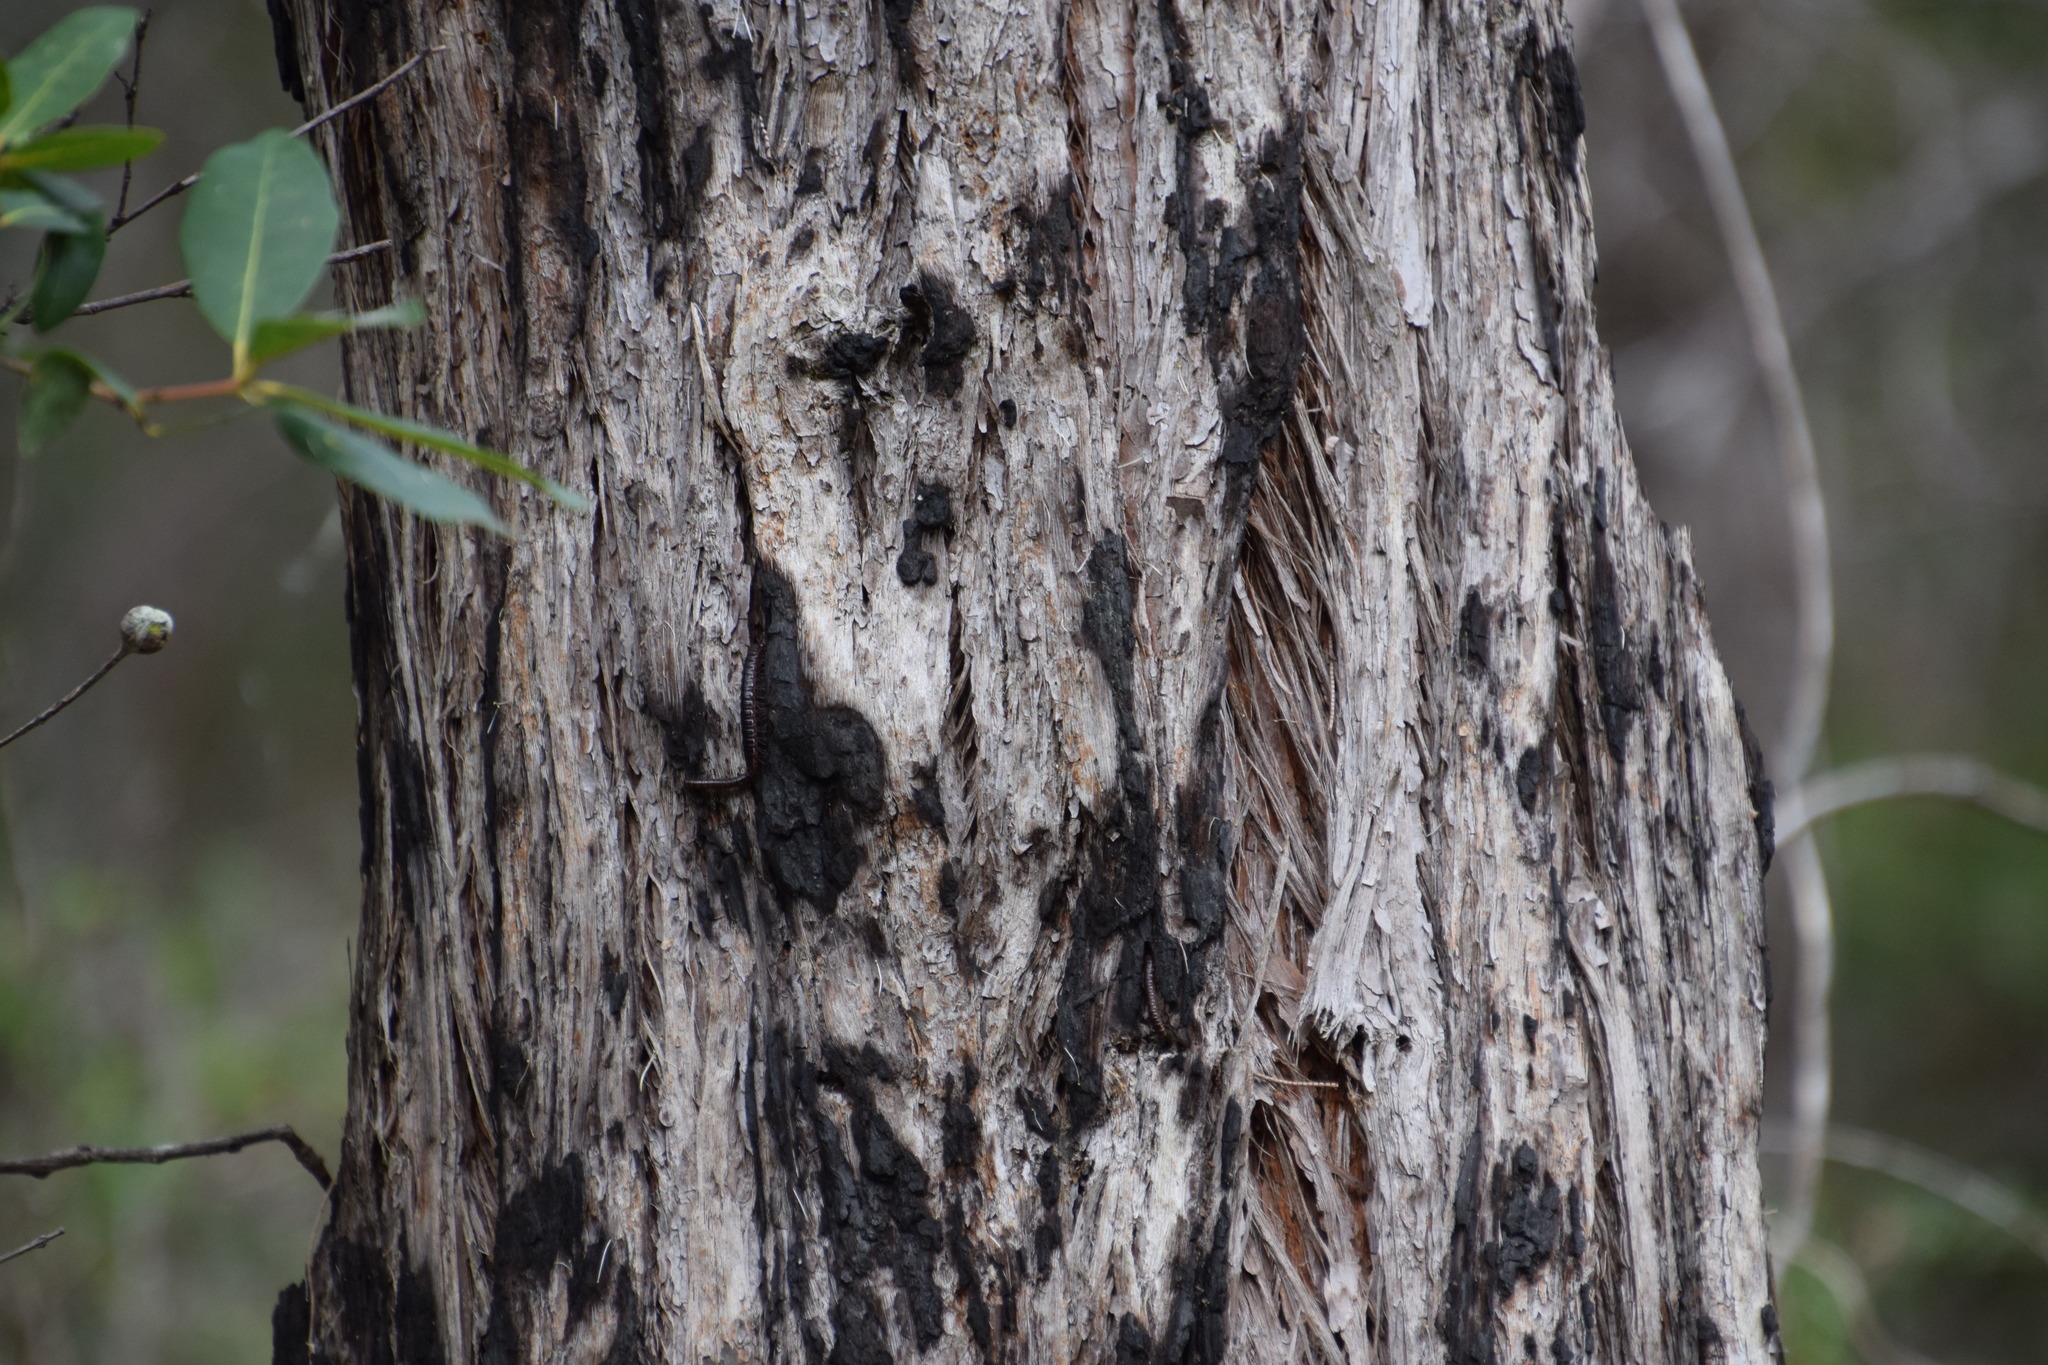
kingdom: Plantae
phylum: Tracheophyta
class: Magnoliopsida
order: Myrtales
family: Myrtaceae
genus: Syncarpia
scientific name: Syncarpia glomulifera
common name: Turpentine tree
